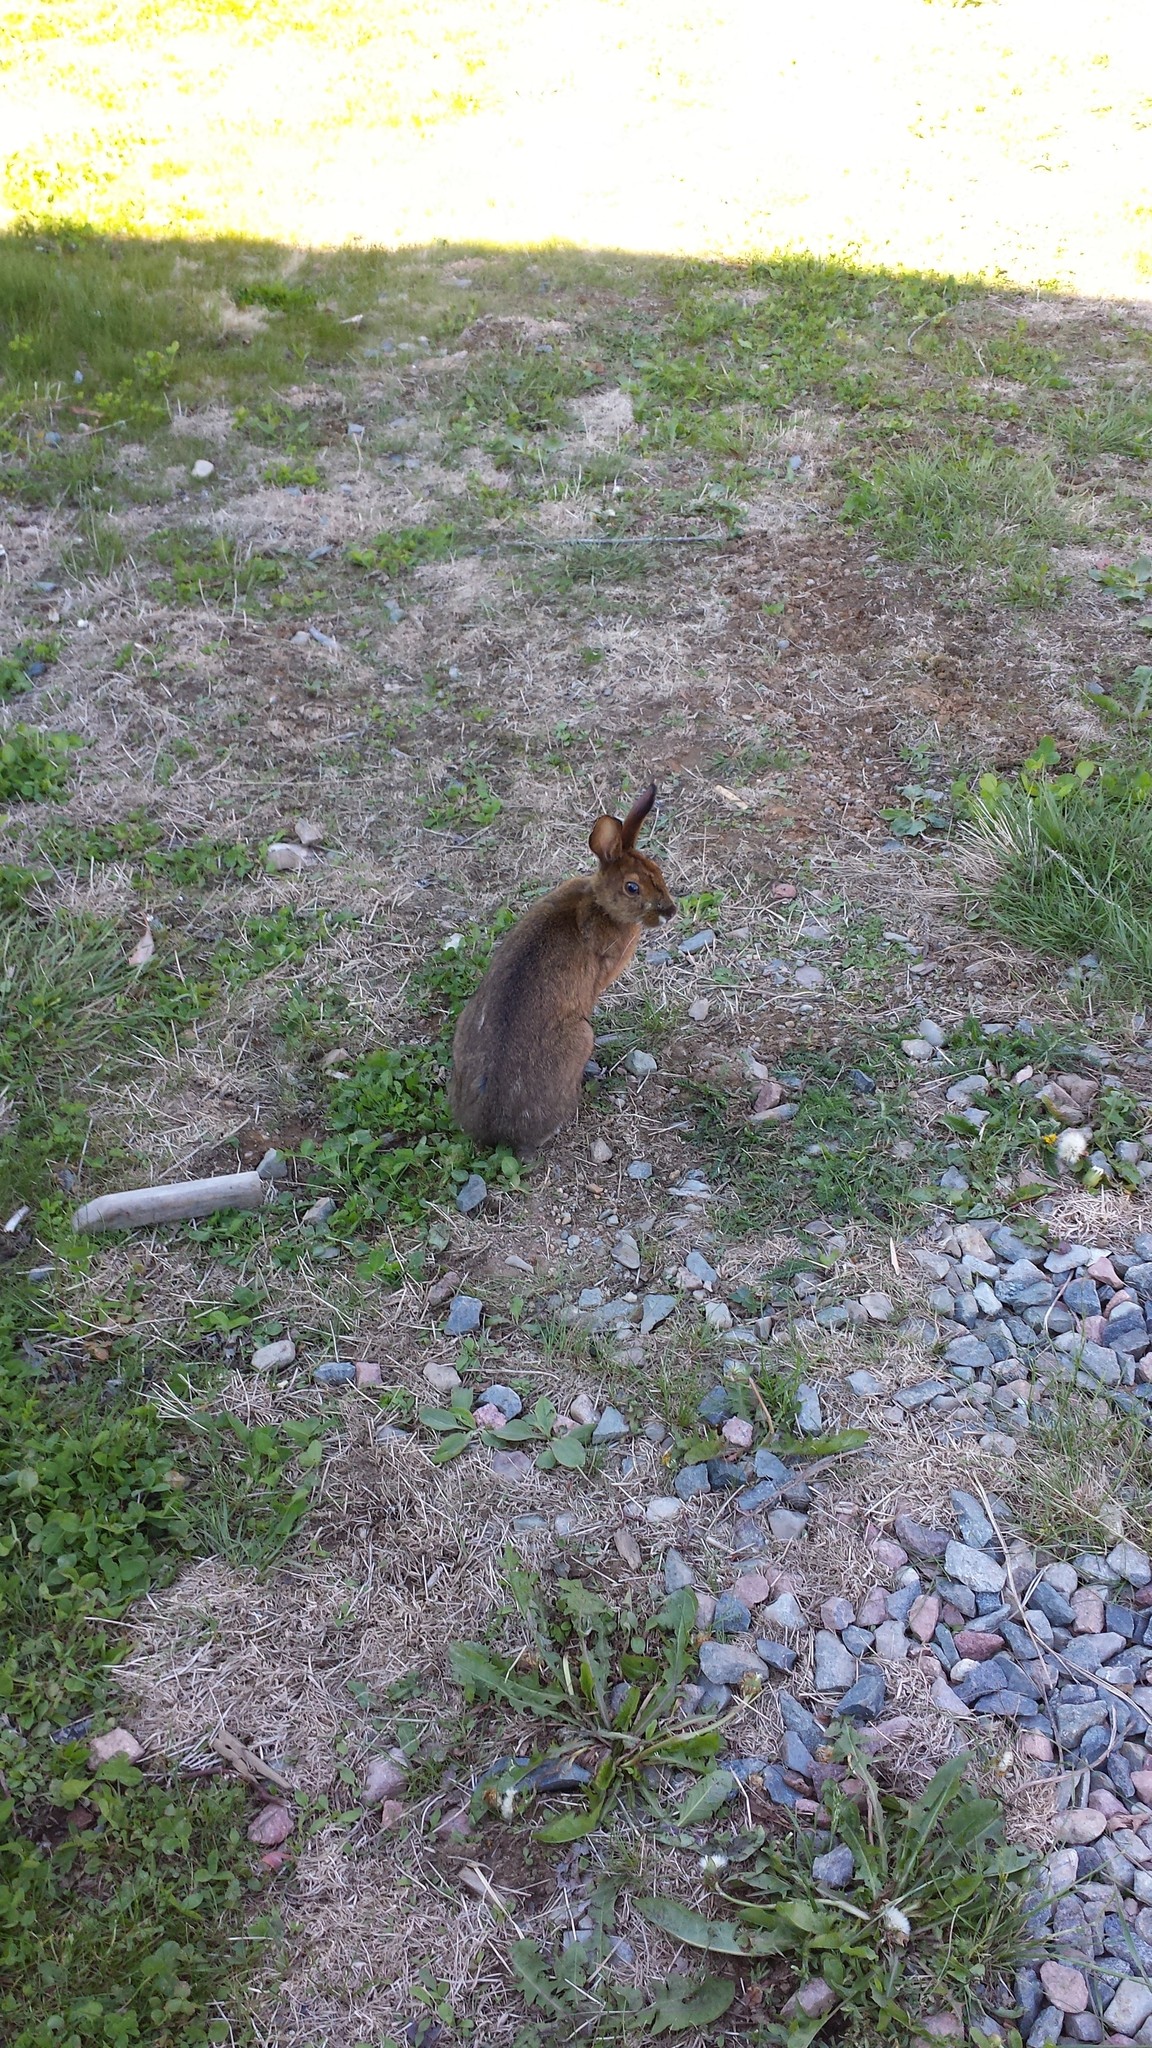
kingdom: Animalia
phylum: Chordata
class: Mammalia
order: Lagomorpha
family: Leporidae
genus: Lepus
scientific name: Lepus americanus
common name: Snowshoe hare
